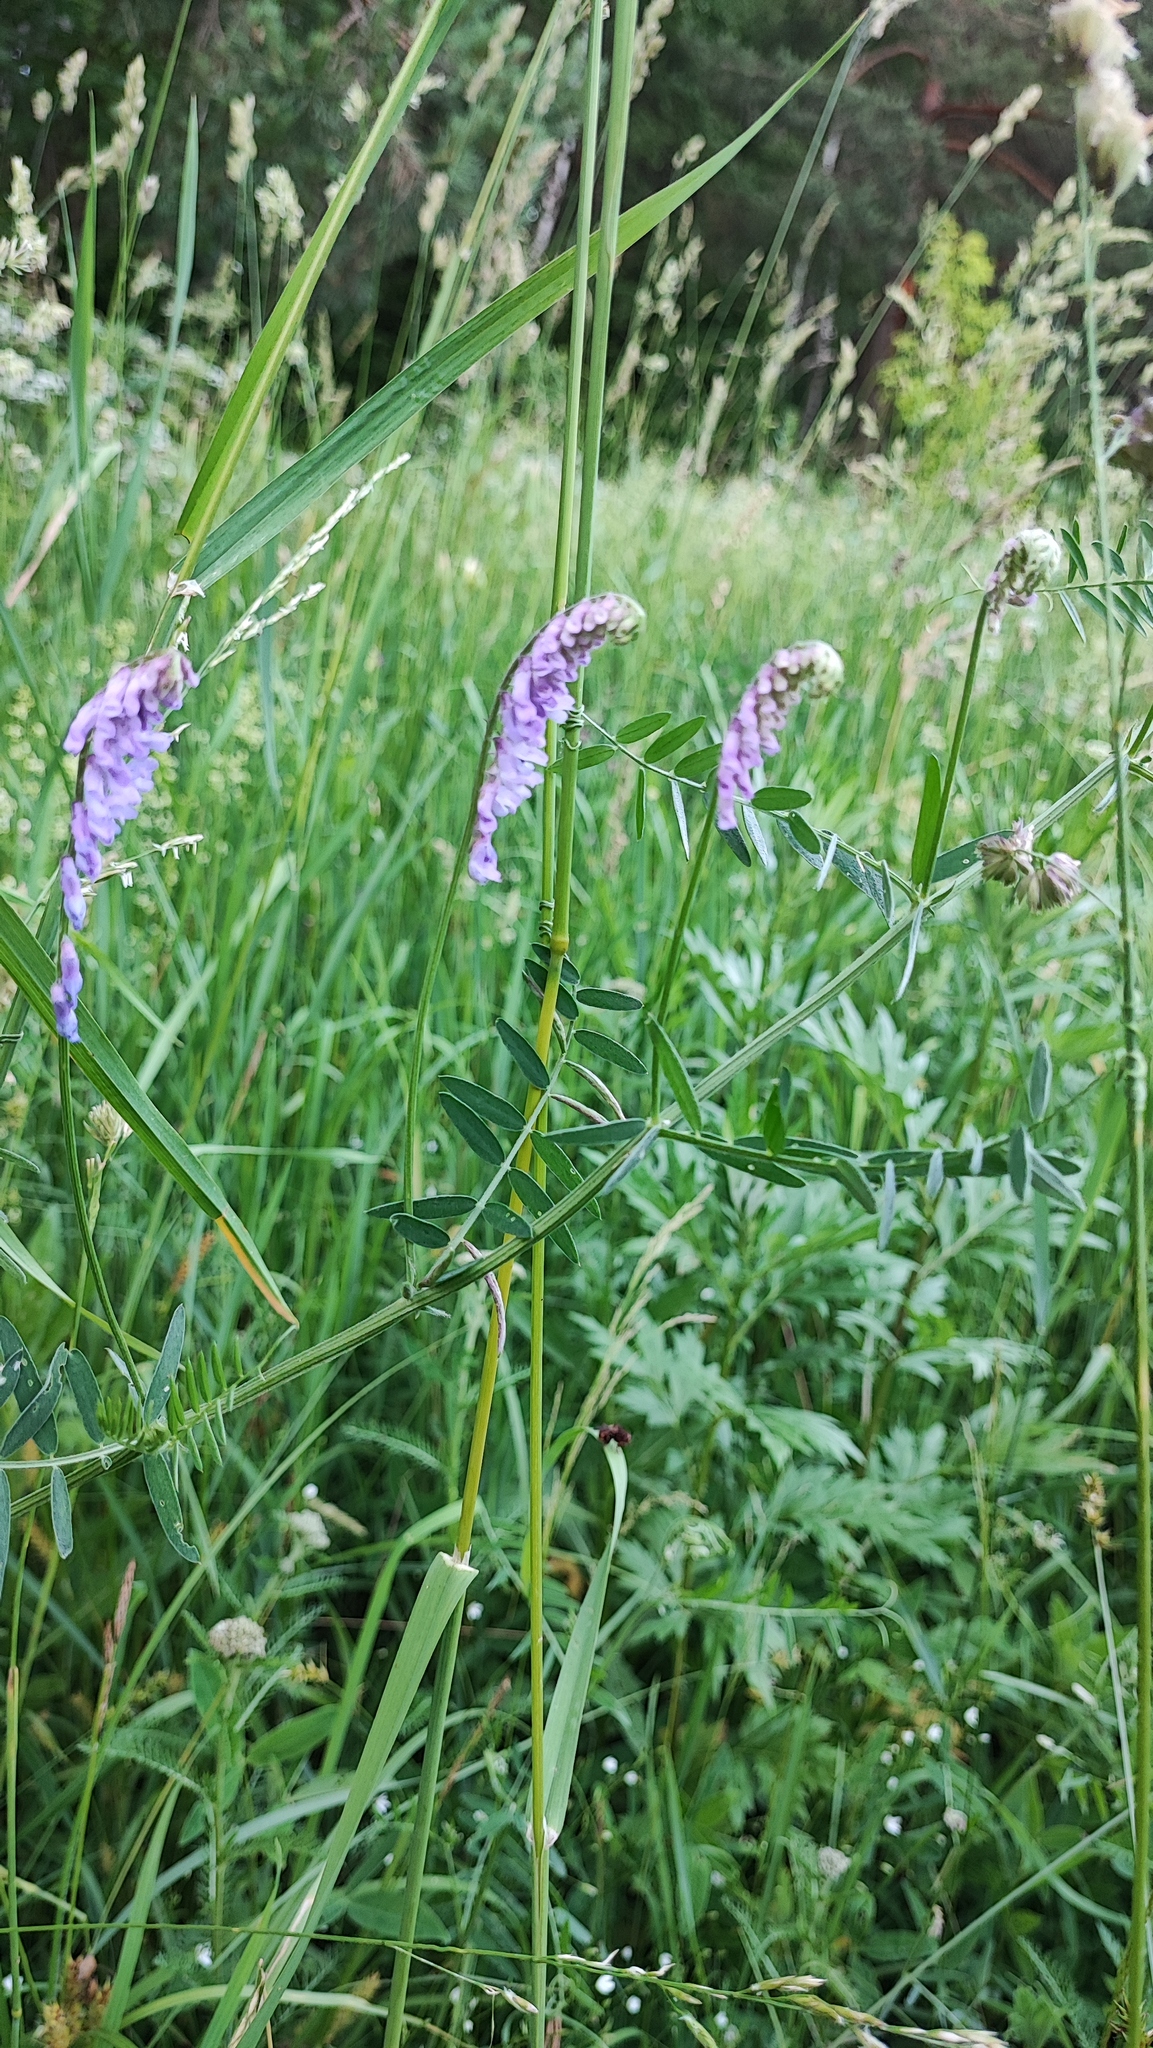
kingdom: Plantae
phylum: Tracheophyta
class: Magnoliopsida
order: Fabales
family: Fabaceae
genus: Vicia
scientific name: Vicia cracca
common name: Bird vetch
